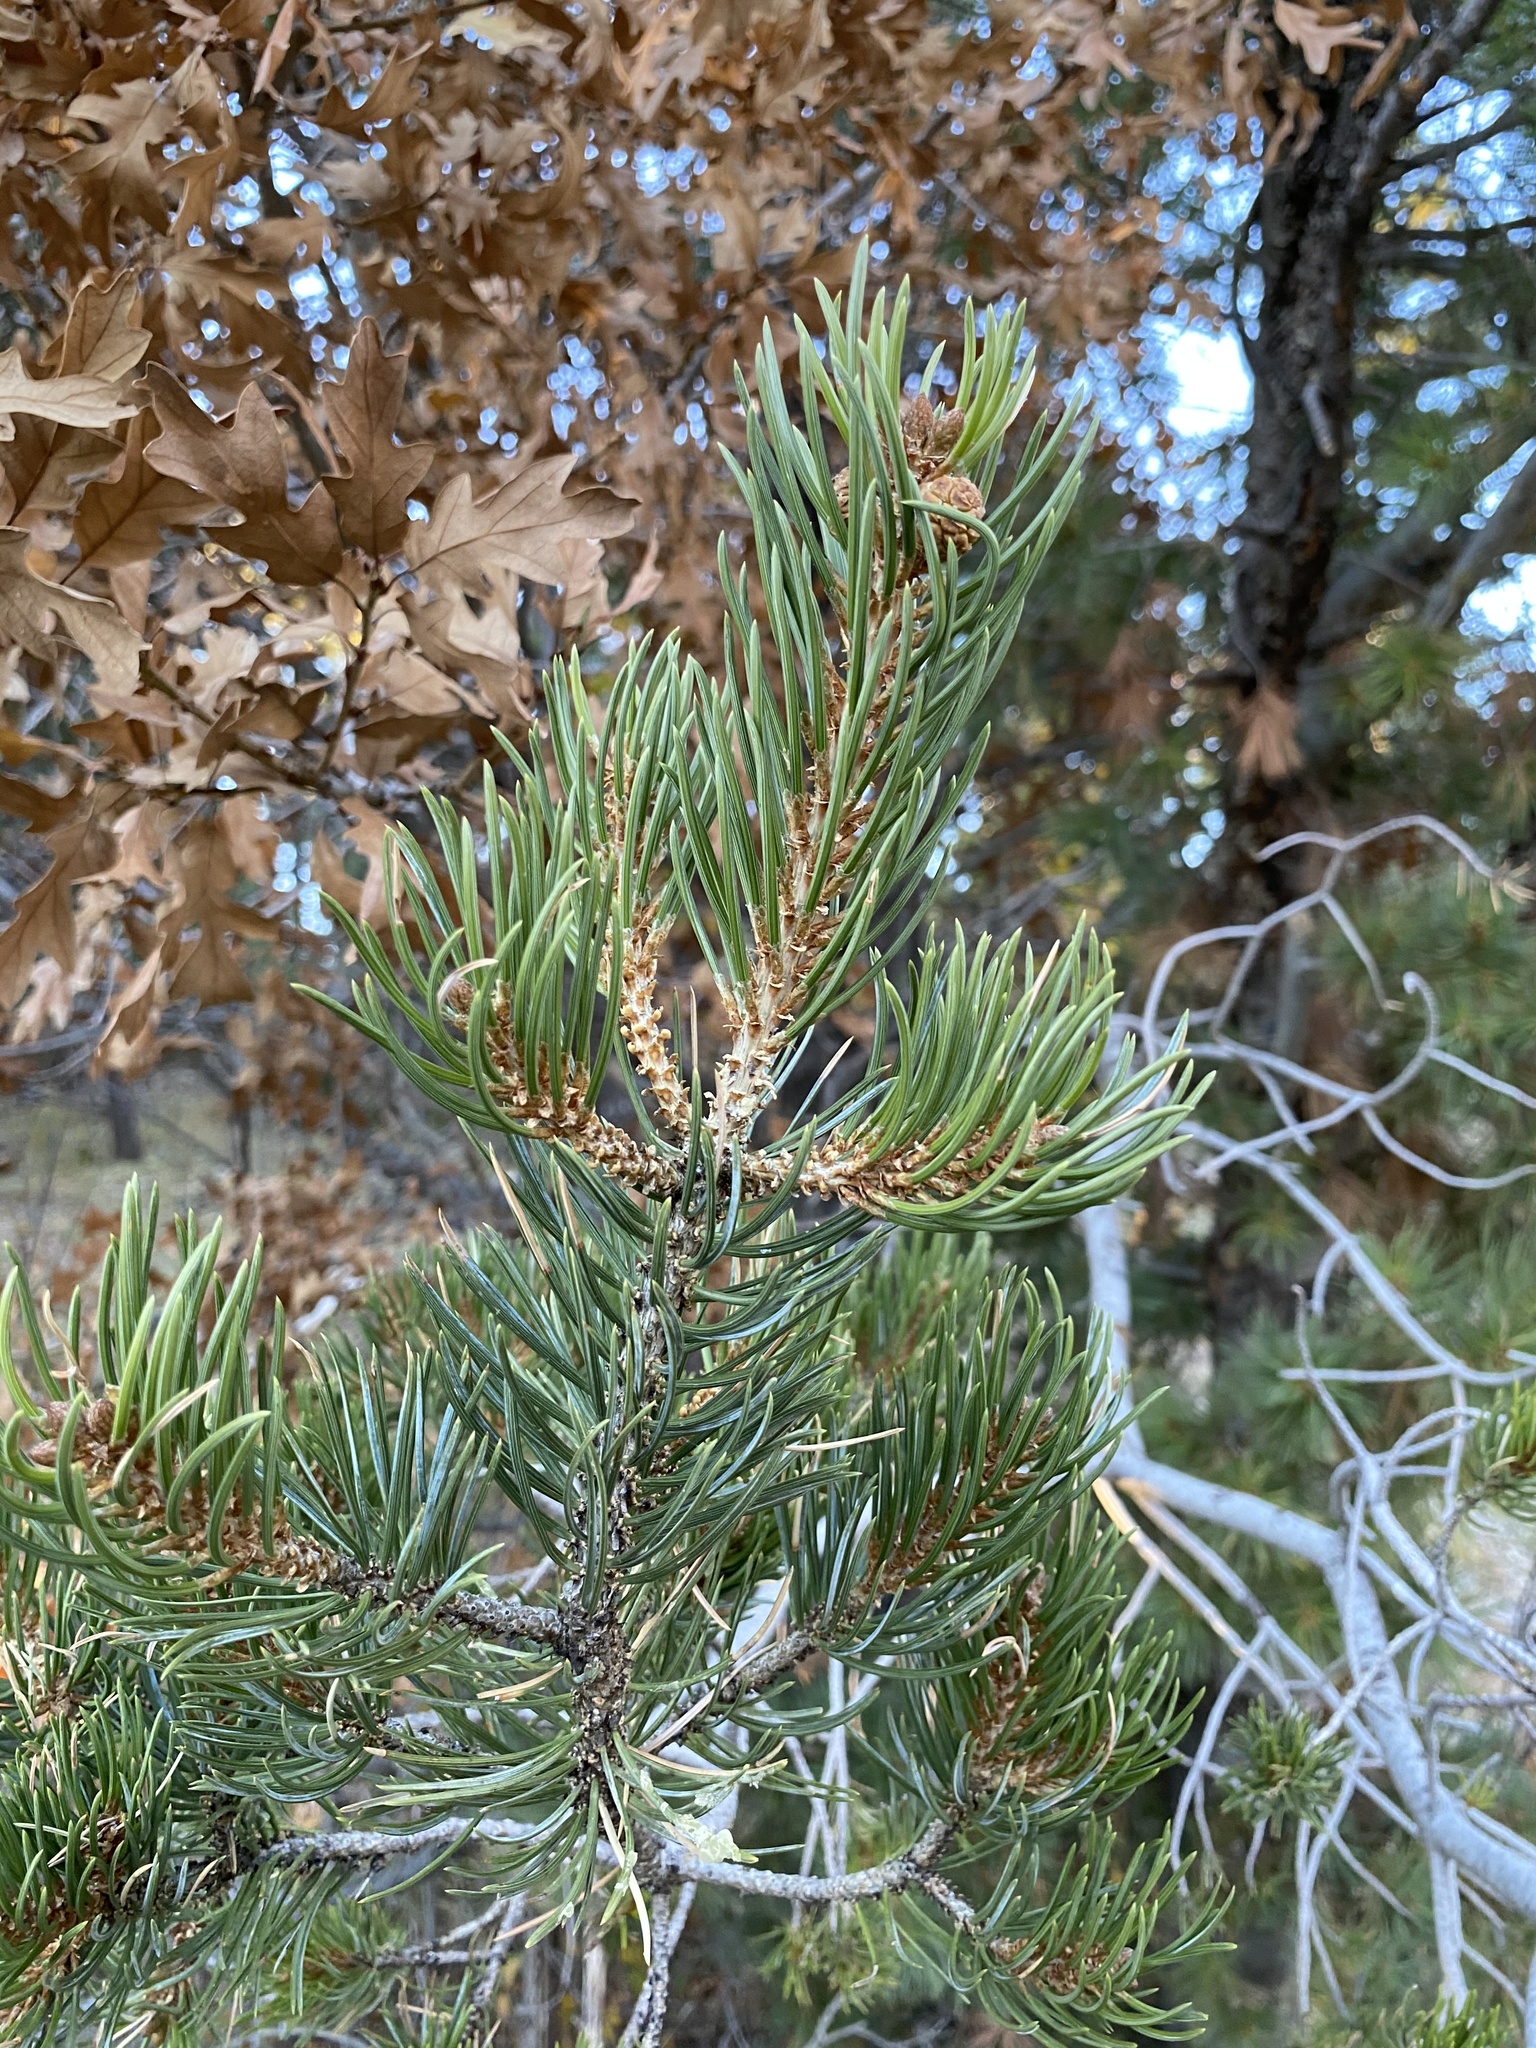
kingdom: Plantae
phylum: Tracheophyta
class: Pinopsida
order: Pinales
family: Pinaceae
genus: Pinus
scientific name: Pinus edulis
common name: Colorado pinyon
